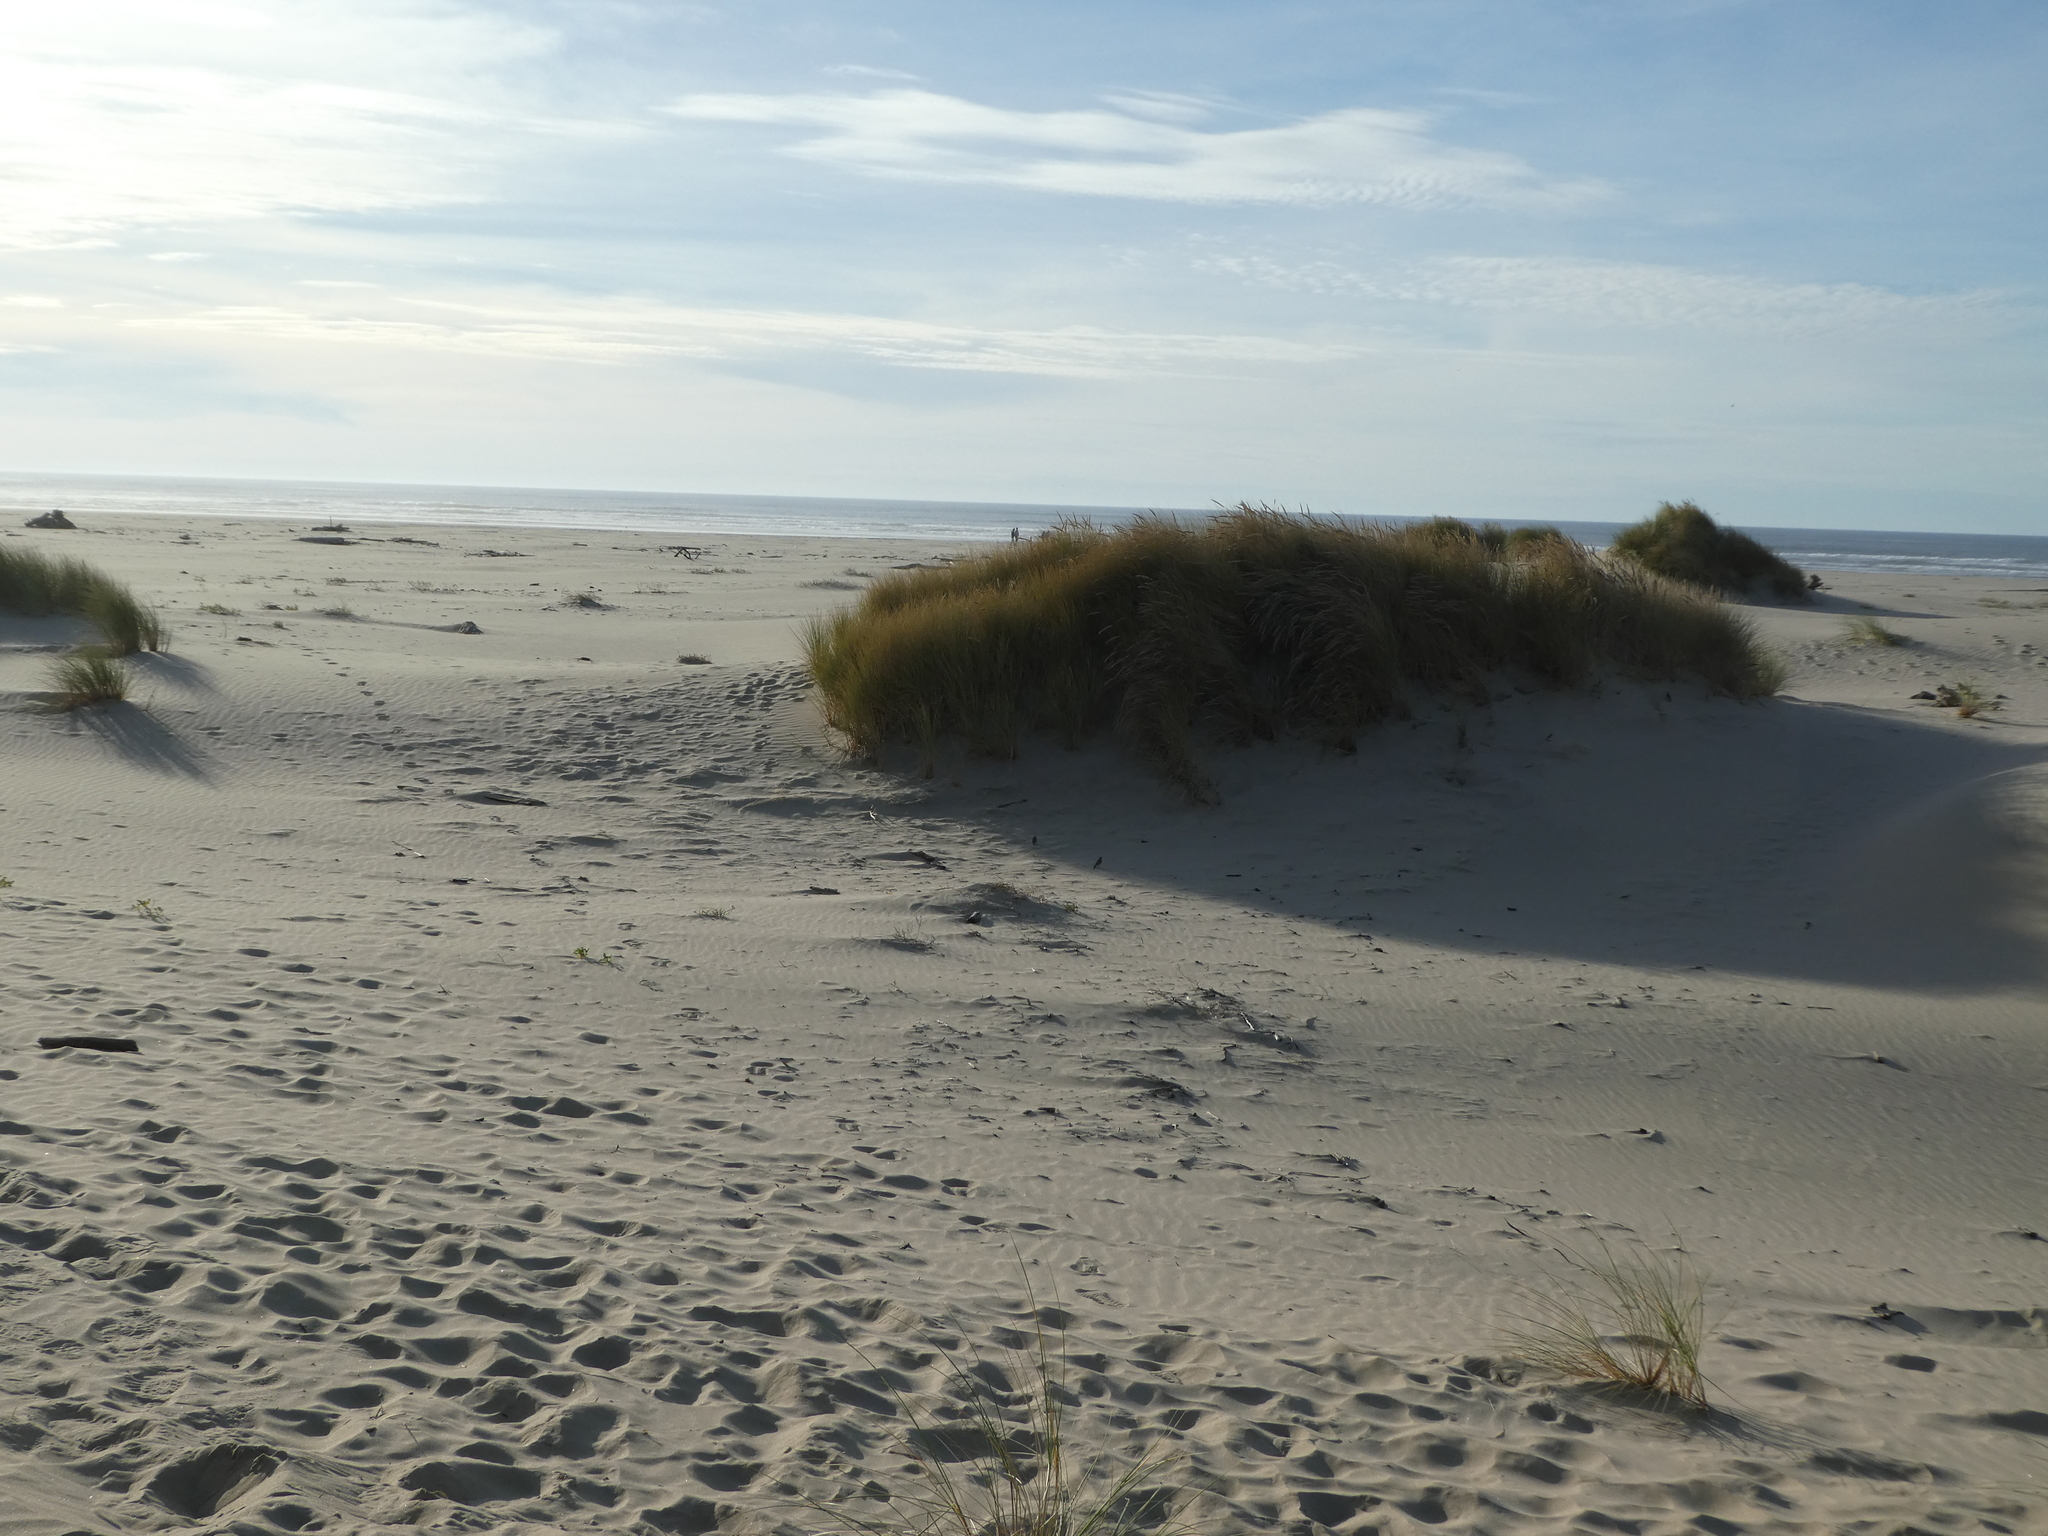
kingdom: Animalia
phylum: Chordata
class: Aves
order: Passeriformes
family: Alaudidae
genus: Eremophila
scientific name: Eremophila alpestris
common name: Horned lark
